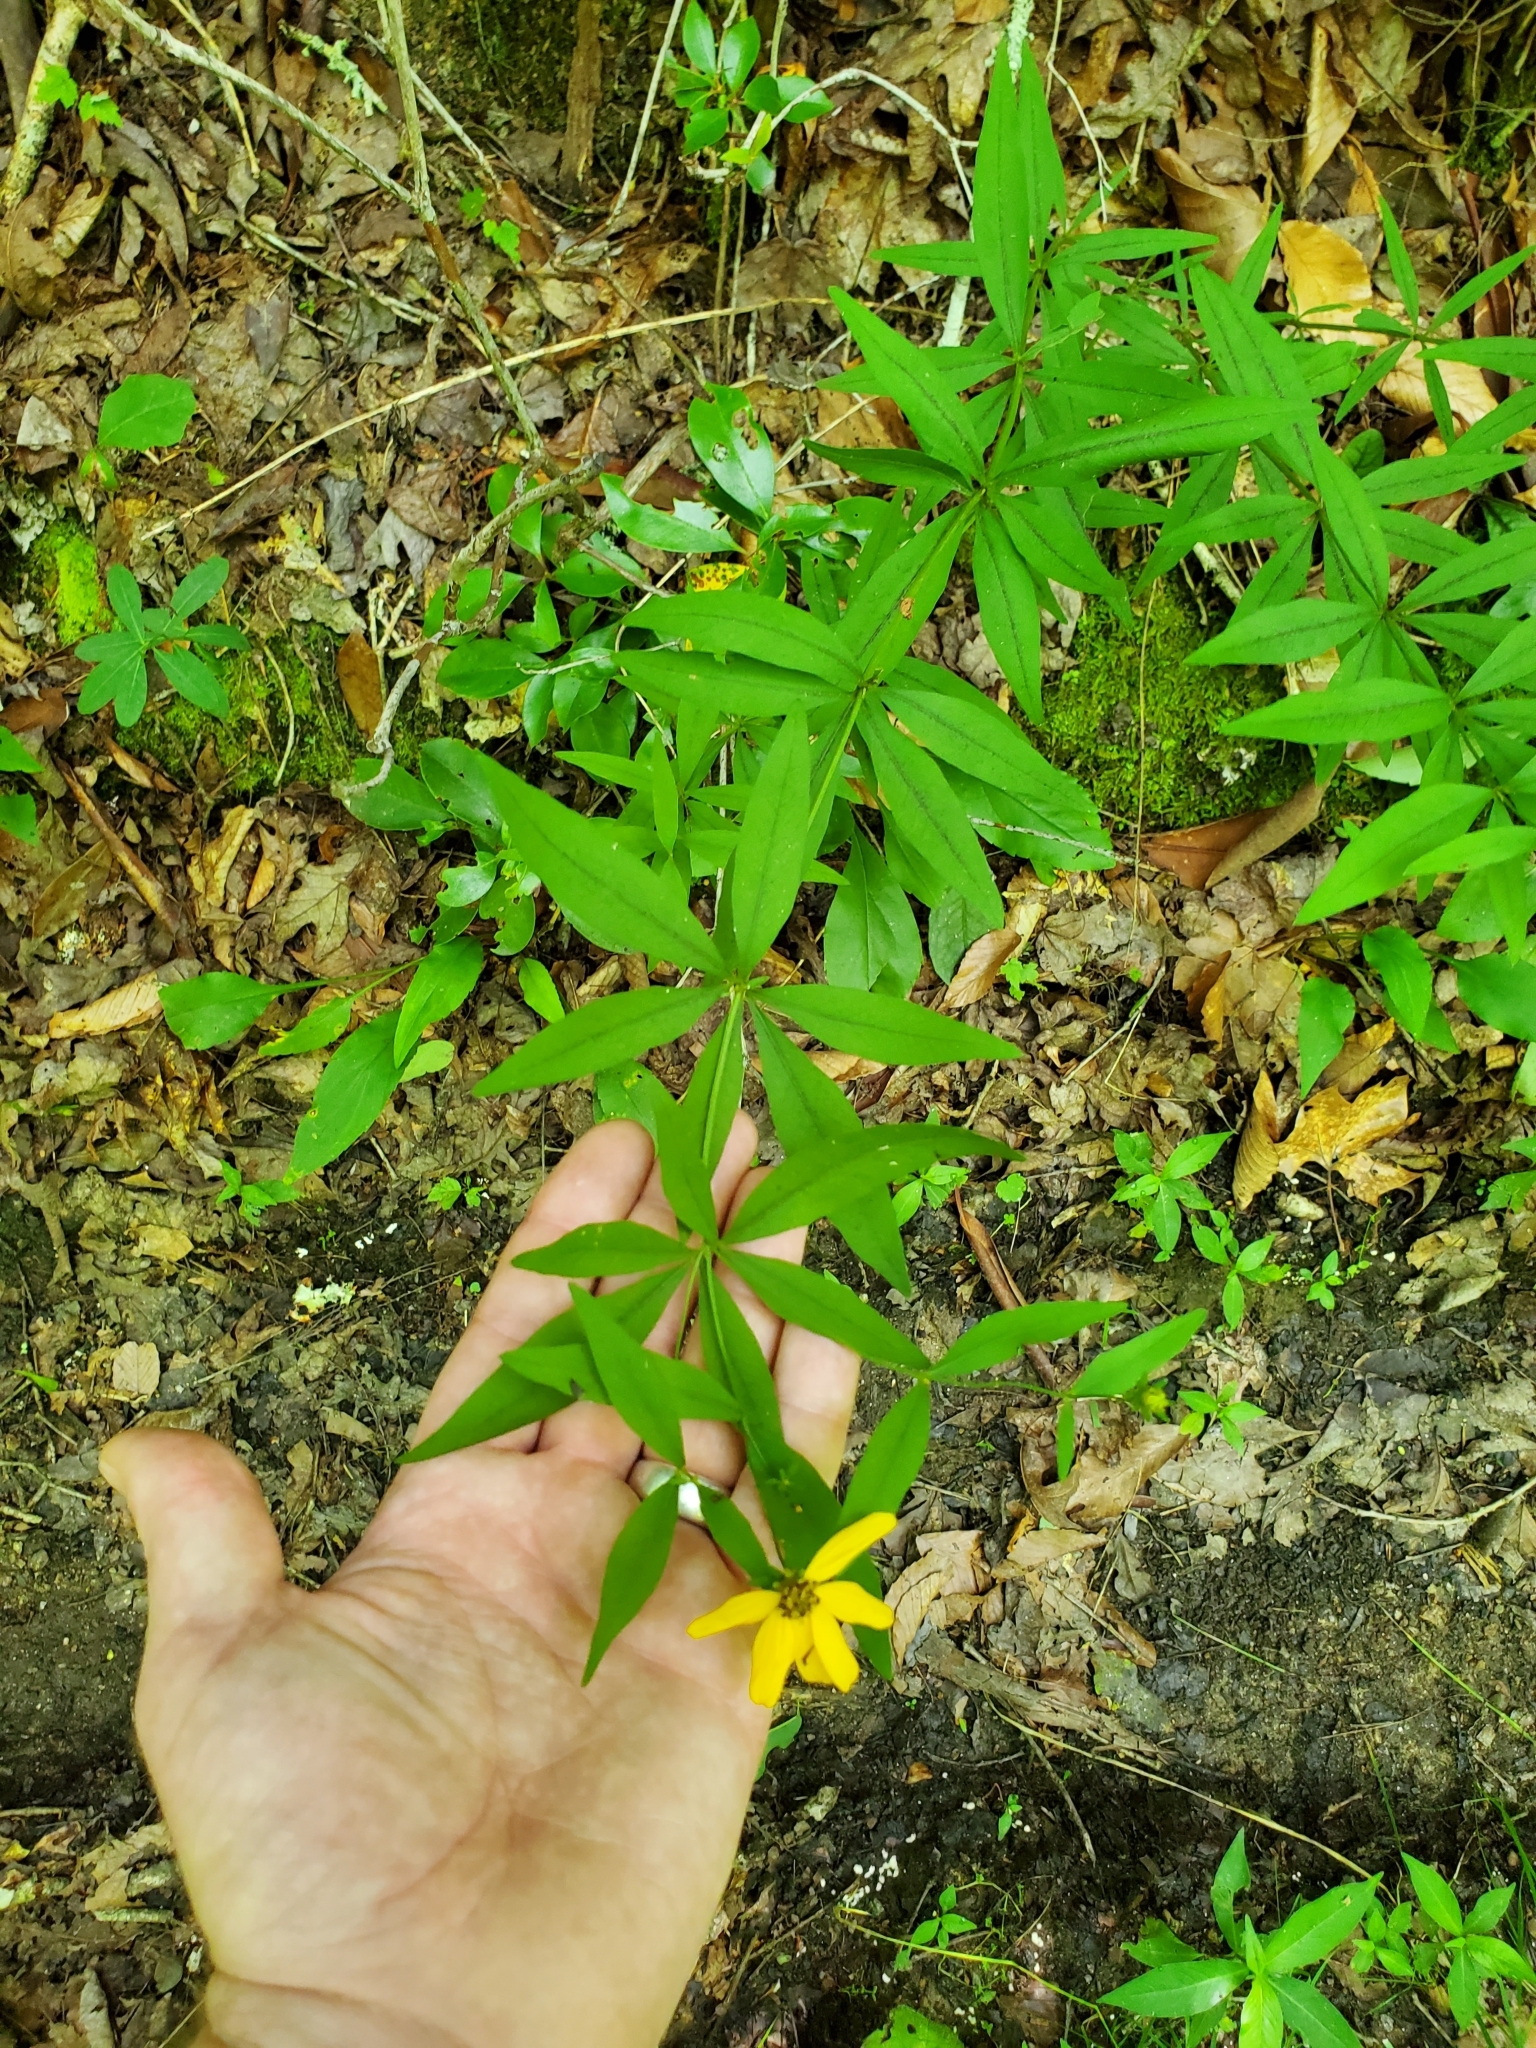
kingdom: Plantae
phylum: Tracheophyta
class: Magnoliopsida
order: Asterales
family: Asteraceae
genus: Coreopsis
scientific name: Coreopsis major
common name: Forest tickseed
